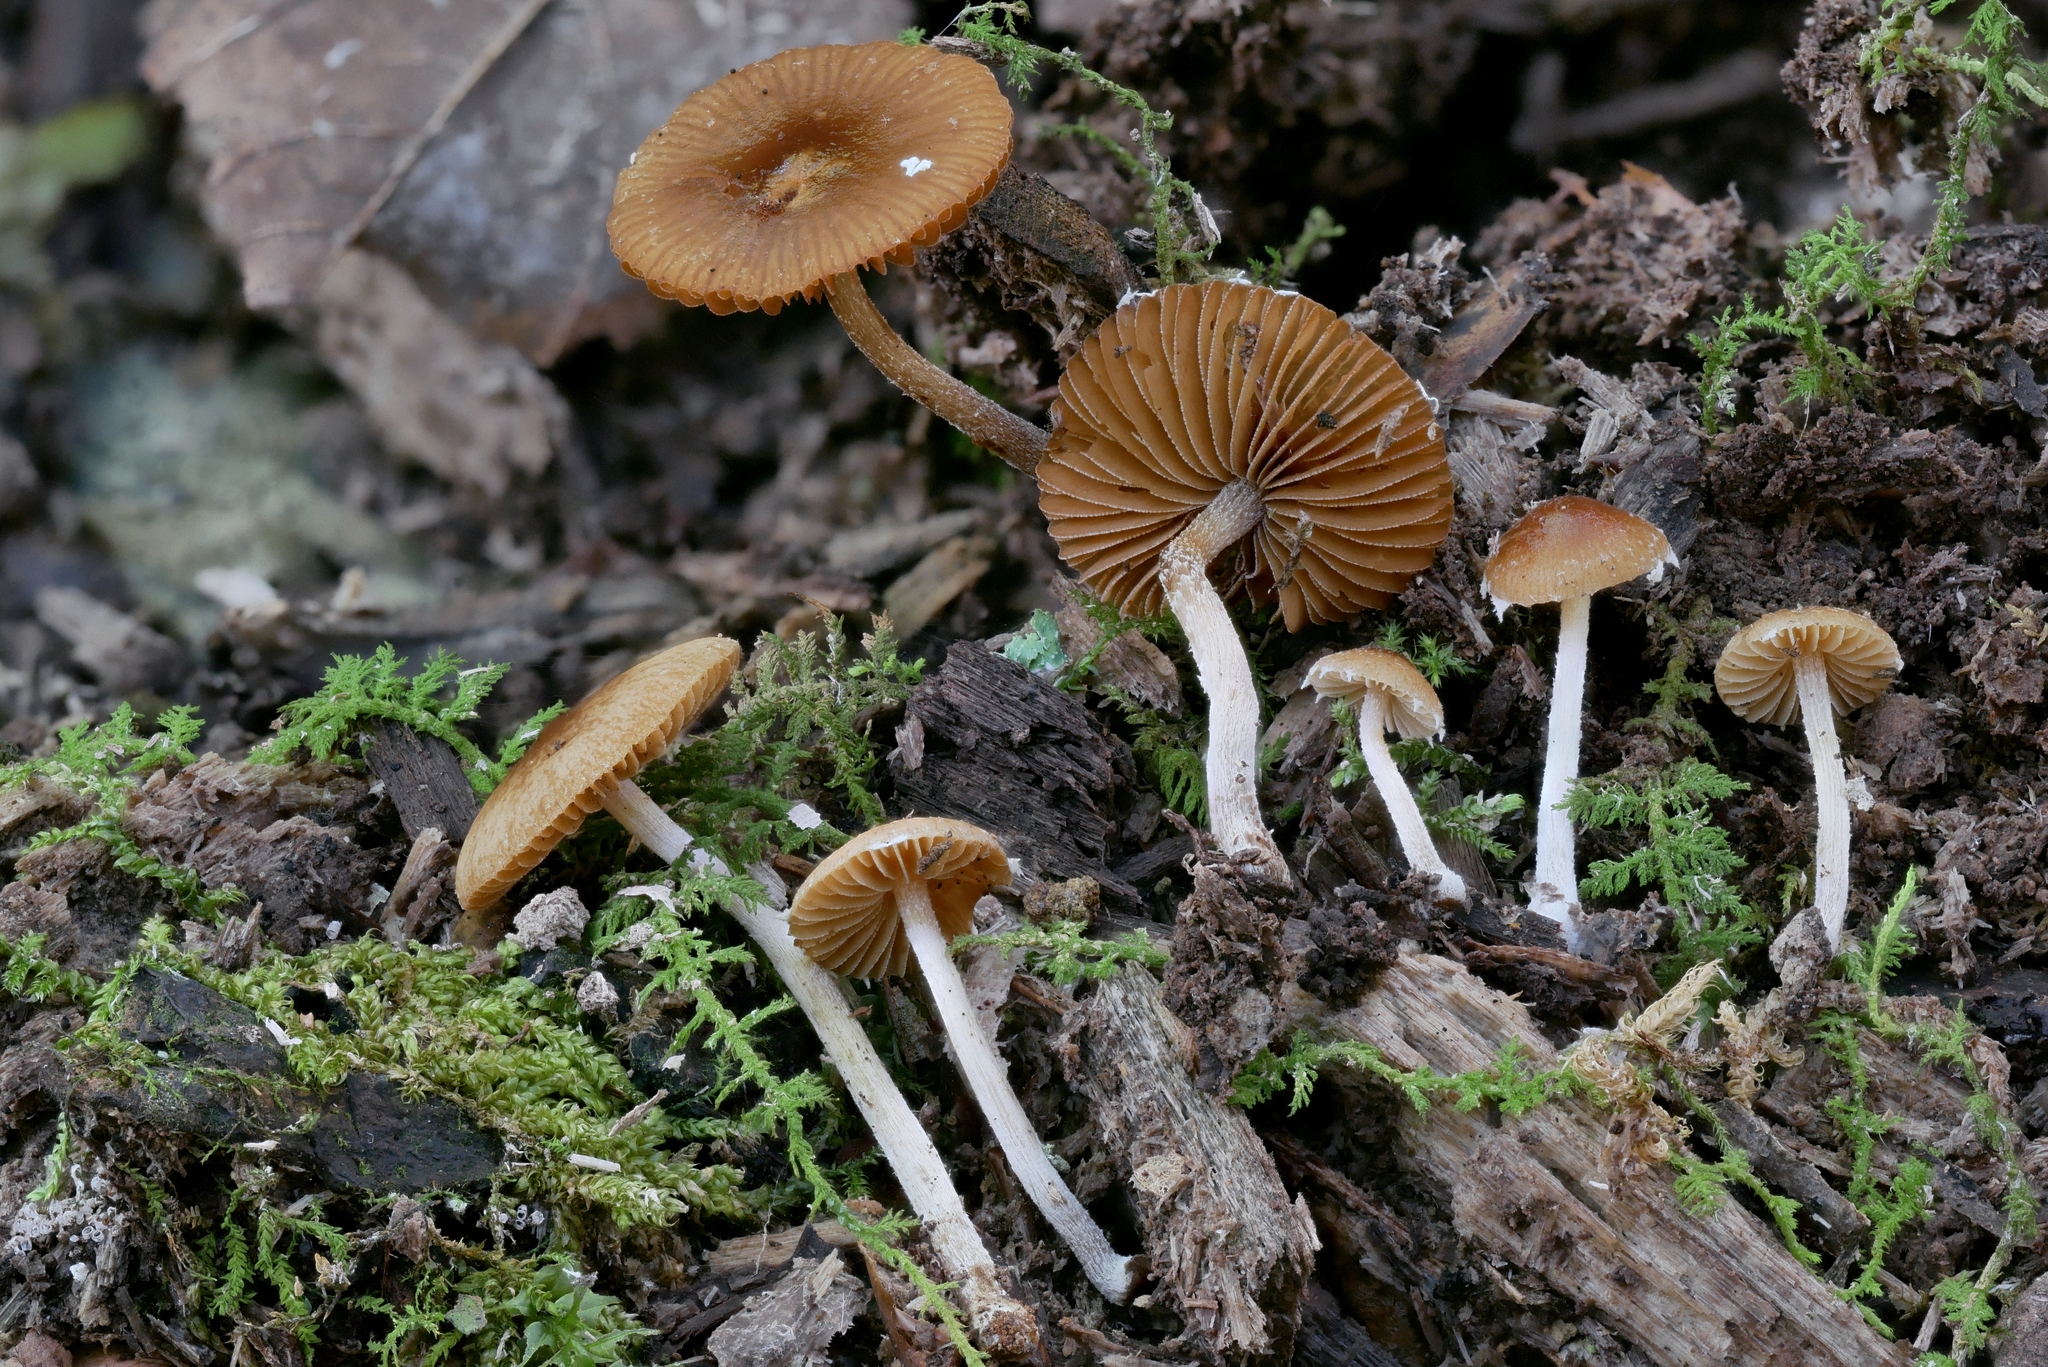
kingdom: Fungi
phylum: Basidiomycota
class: Agaricomycetes
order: Agaricales
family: Bolbitiaceae
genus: Conocybe
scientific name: Conocybe intermedia
